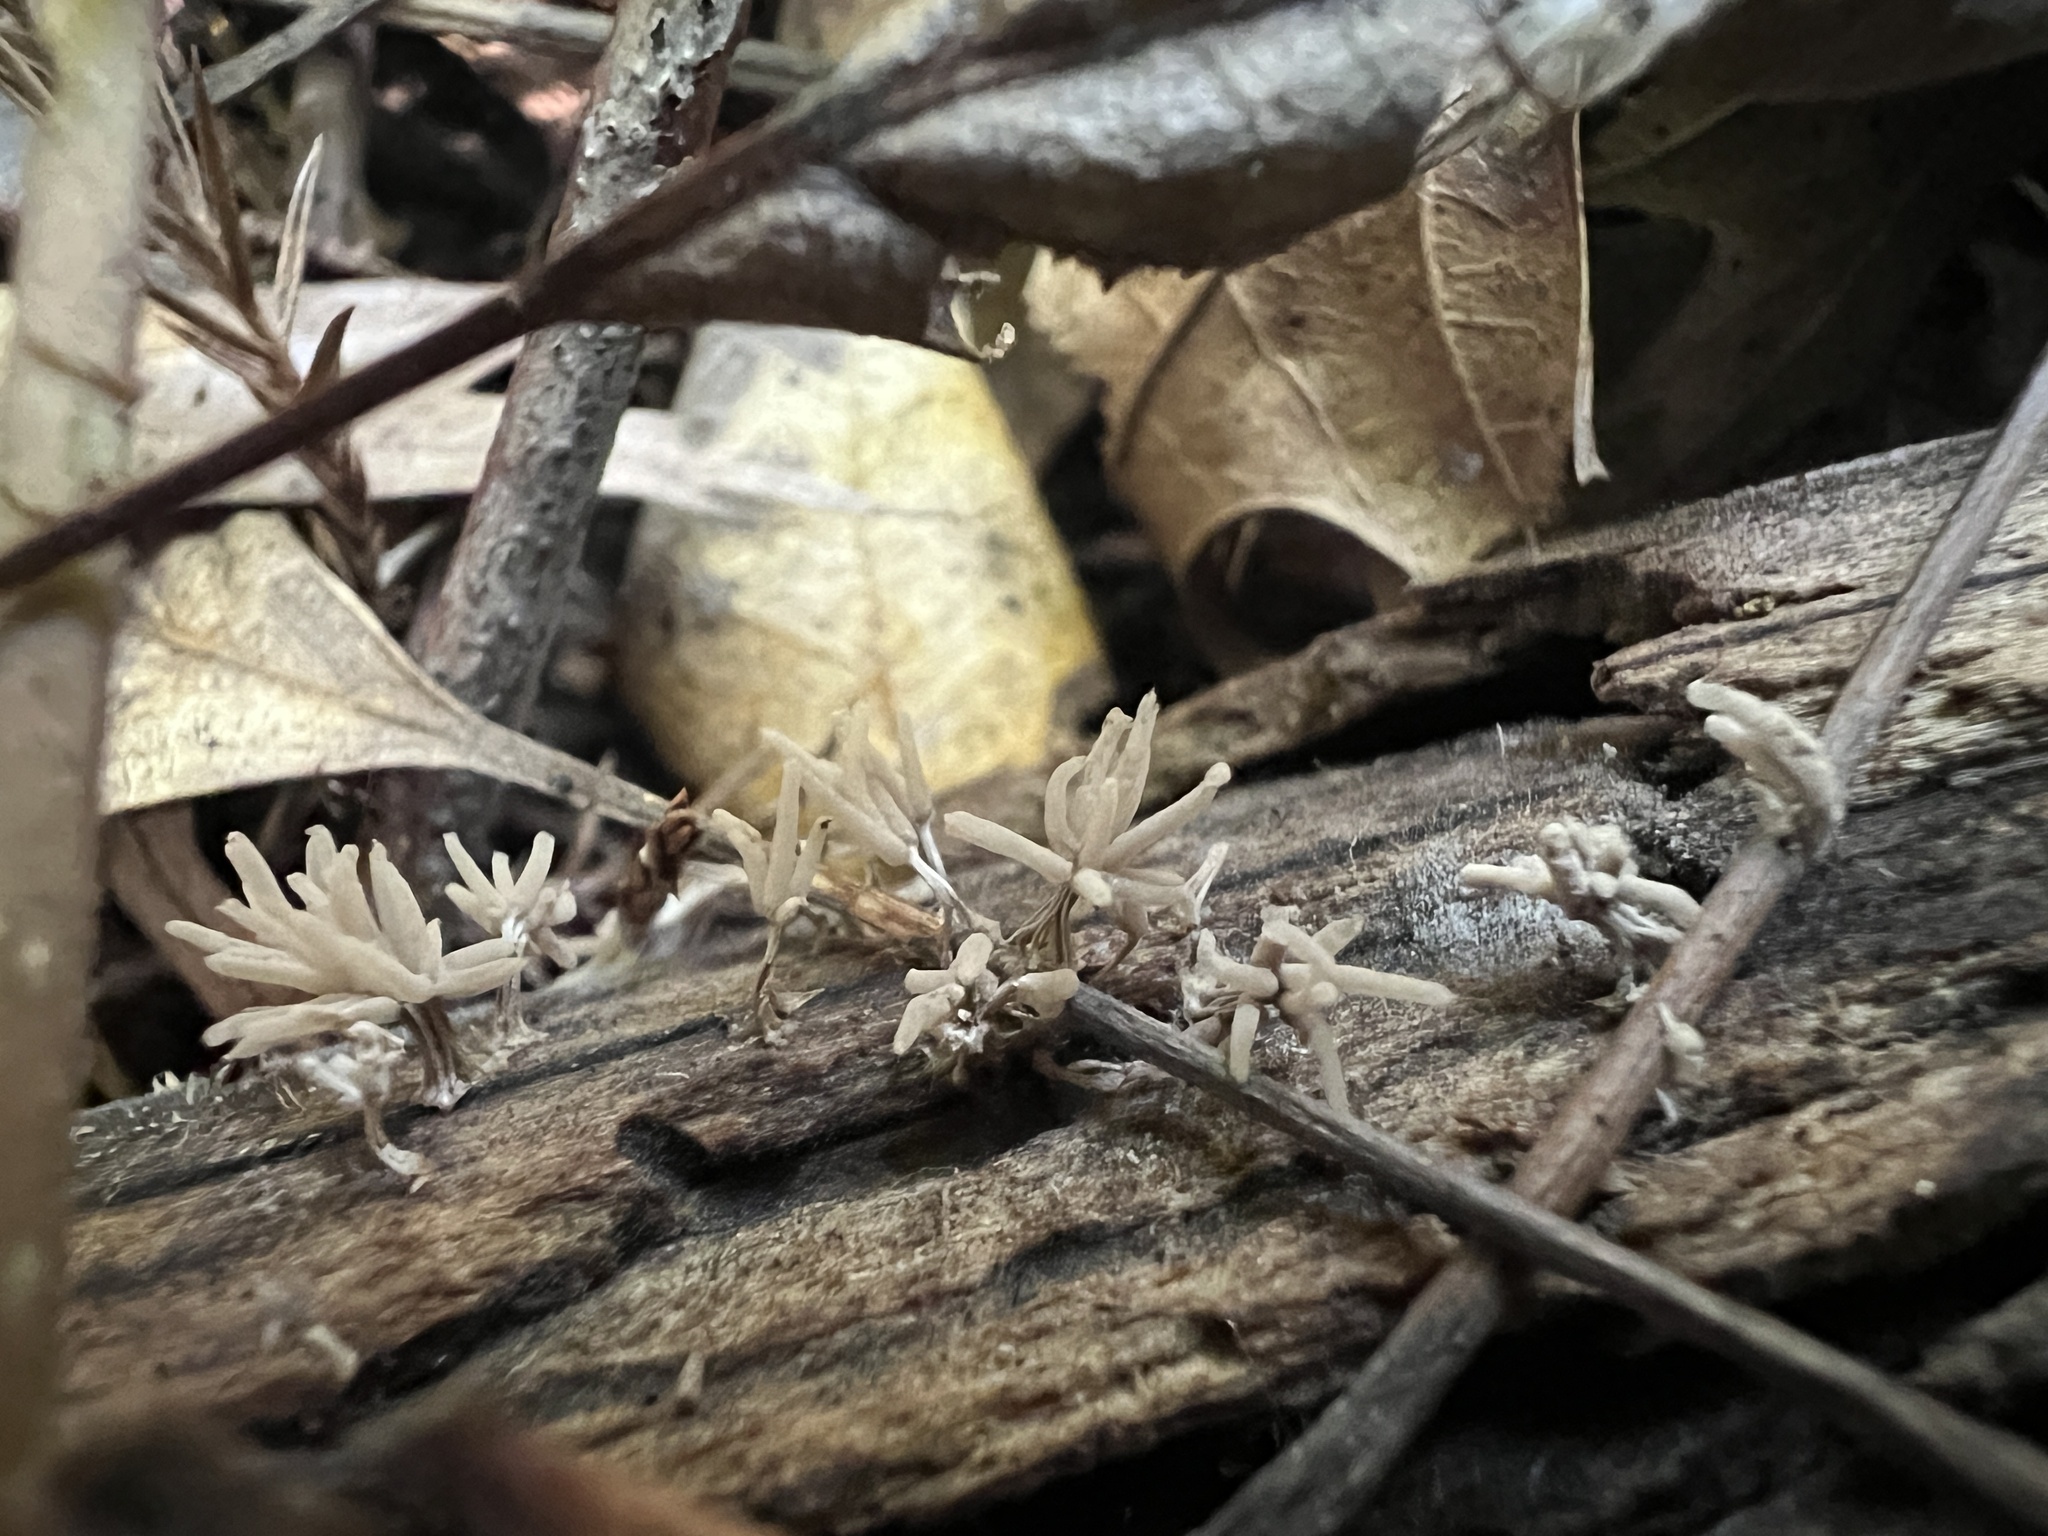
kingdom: Protozoa
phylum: Mycetozoa
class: Myxomycetes
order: Trichiales
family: Arcyriaceae
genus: Arcyria
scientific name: Arcyria cinerea
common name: White carnival candy slime mold
